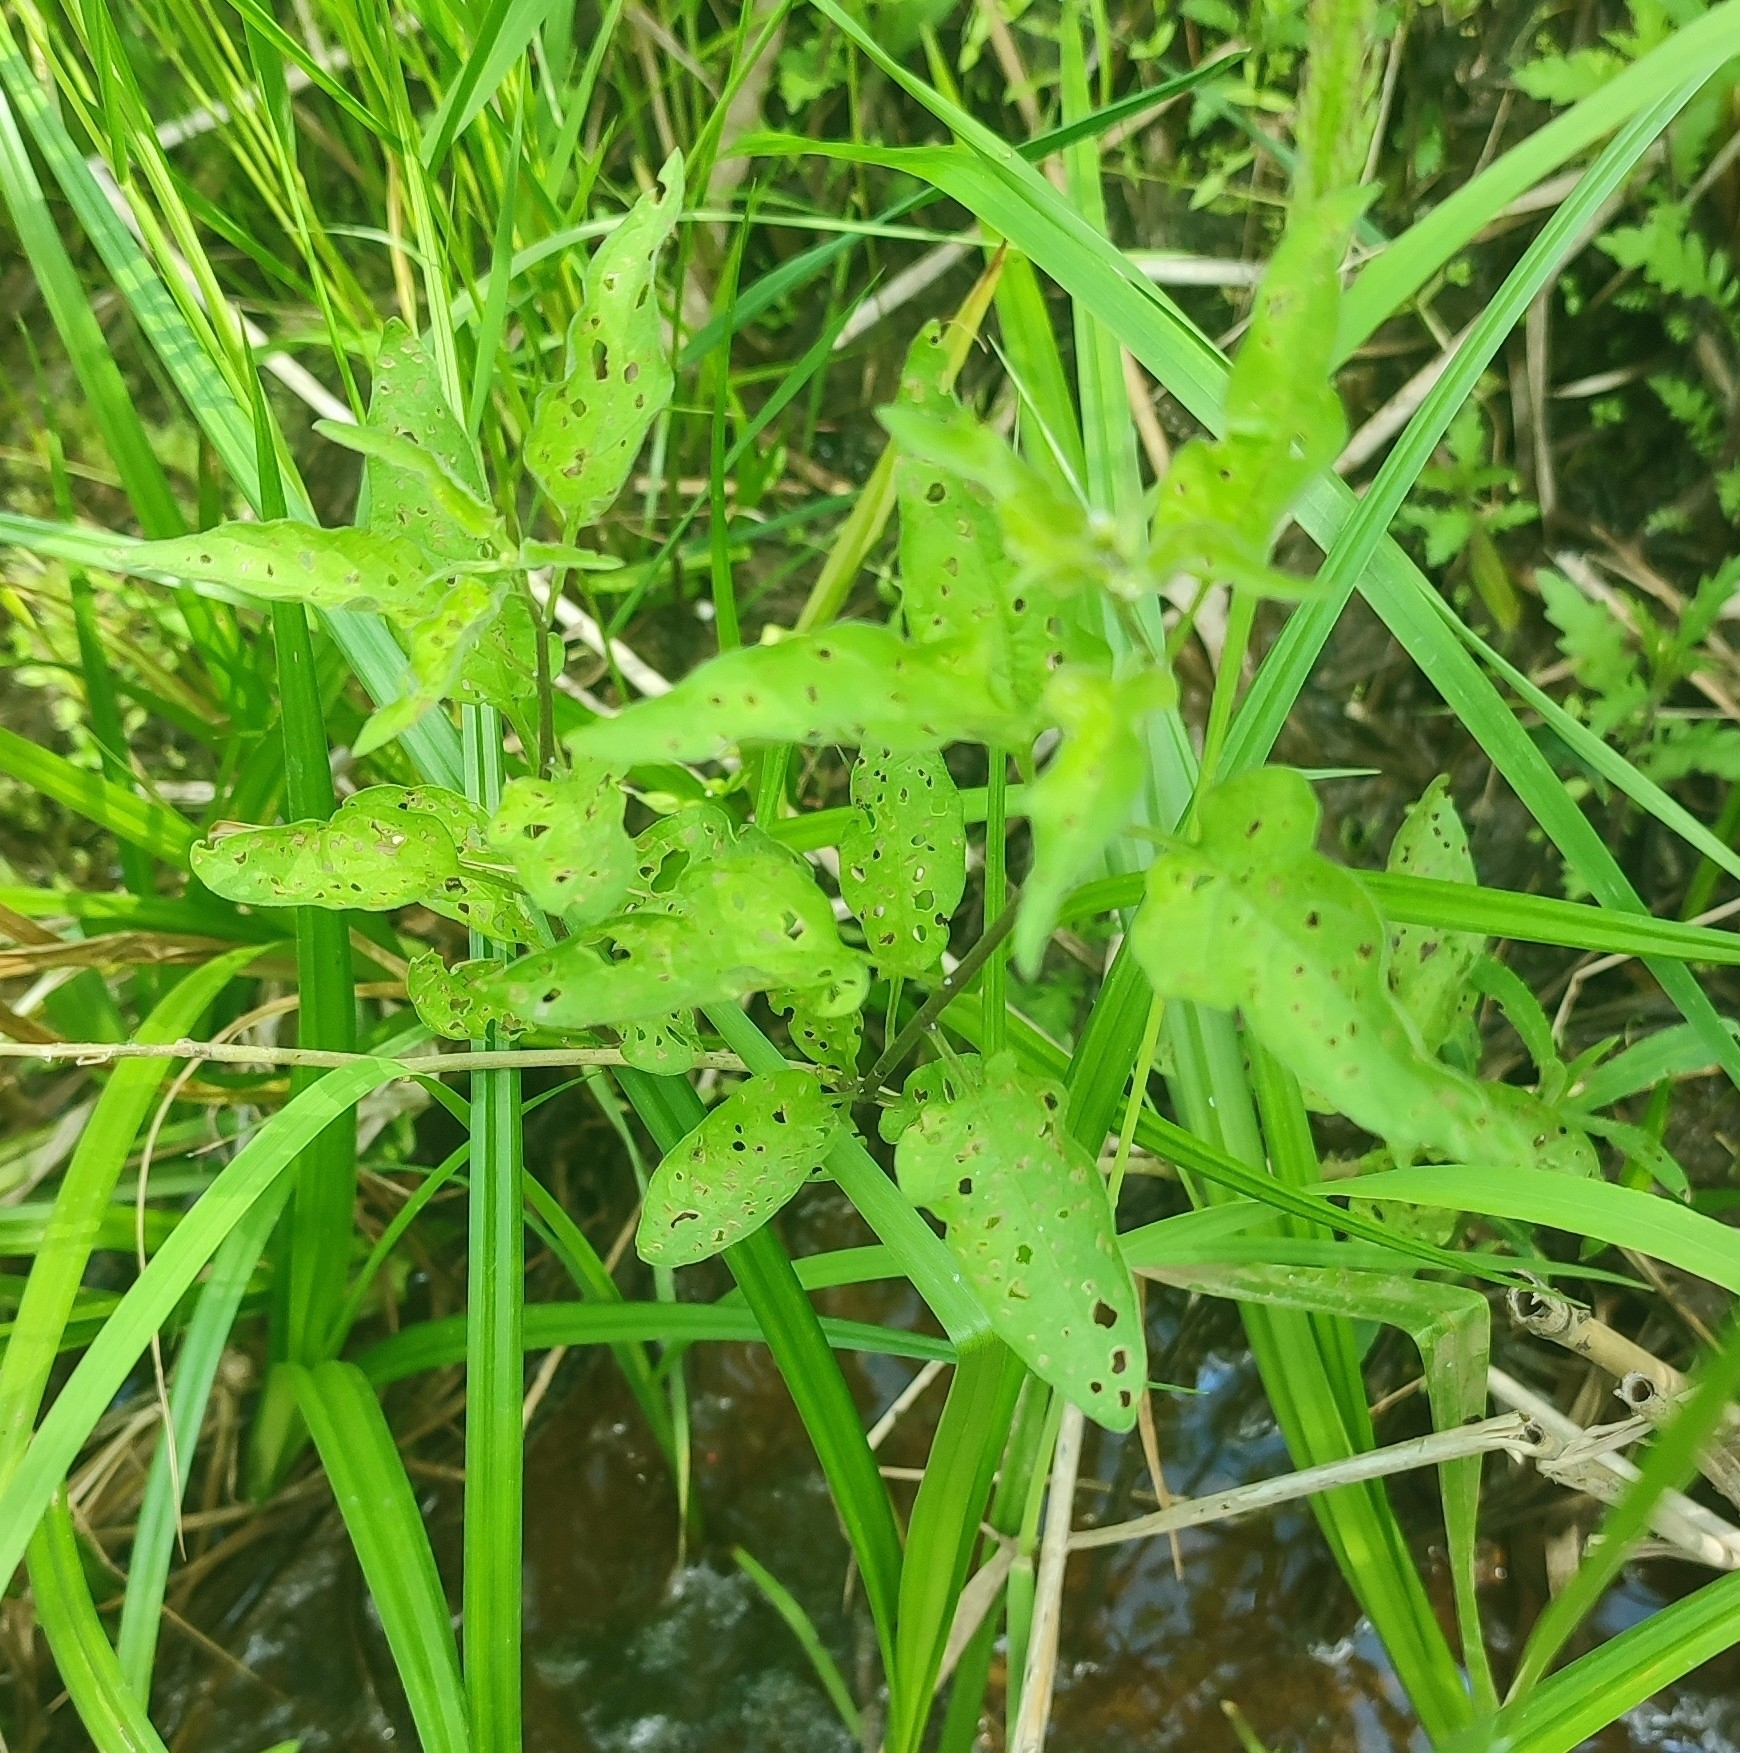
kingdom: Plantae
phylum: Tracheophyta
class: Magnoliopsida
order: Solanales
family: Solanaceae
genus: Solanum
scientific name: Solanum dulcamara
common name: Climbing nightshade
